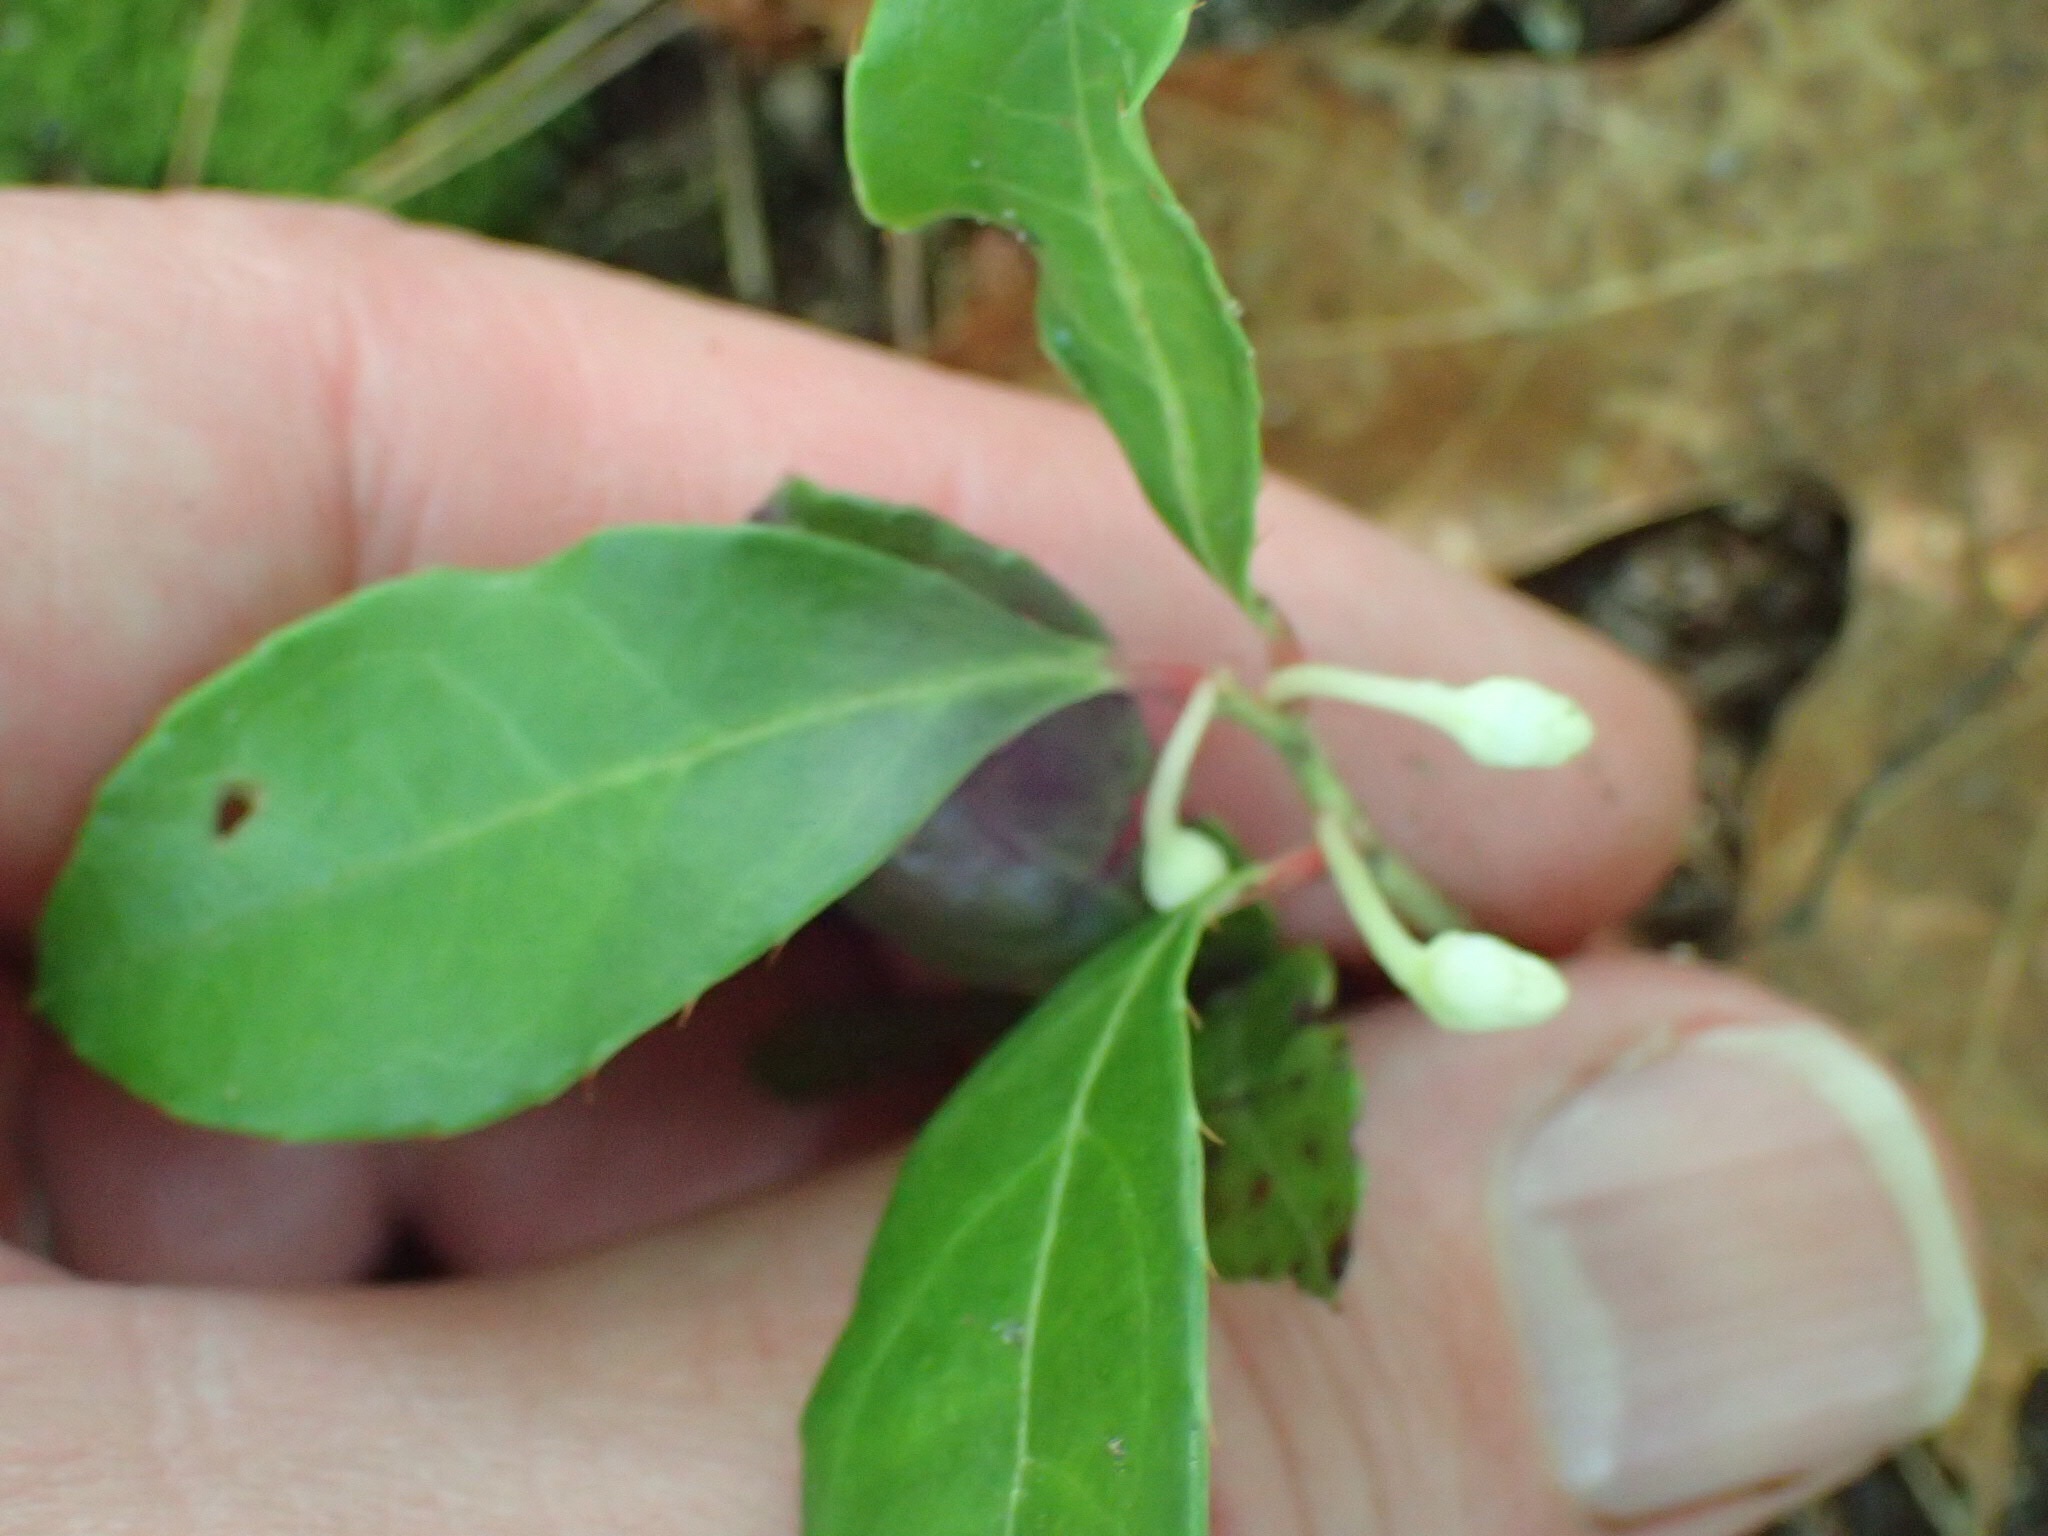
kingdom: Plantae
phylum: Tracheophyta
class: Magnoliopsida
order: Ericales
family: Ericaceae
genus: Gaultheria
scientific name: Gaultheria procumbens
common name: Checkerberry
